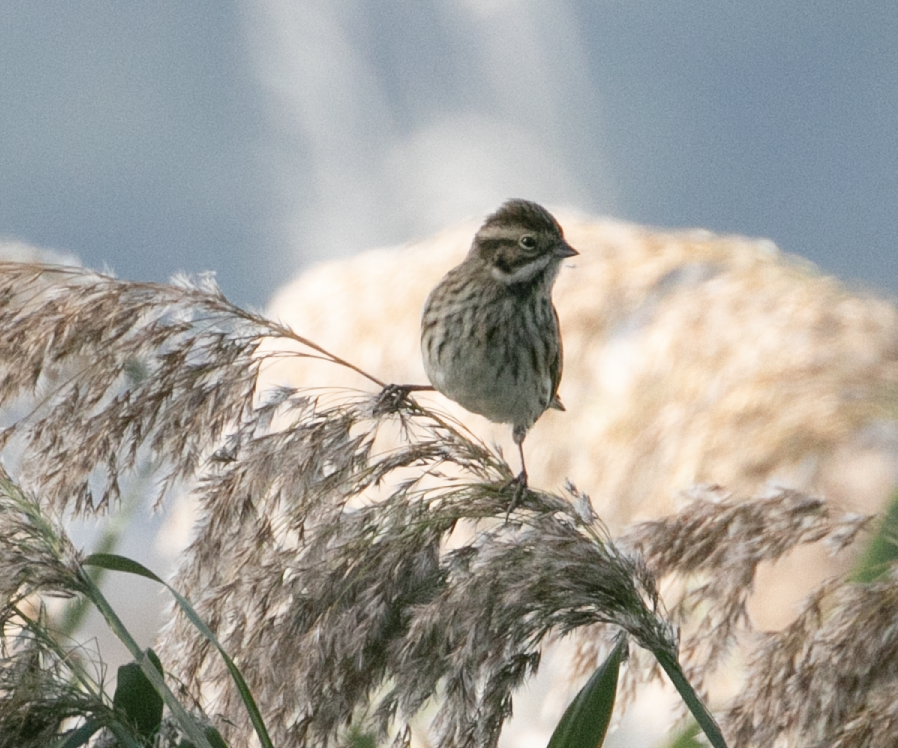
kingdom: Animalia
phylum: Chordata
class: Aves
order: Passeriformes
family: Emberizidae
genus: Emberiza
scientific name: Emberiza schoeniclus
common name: Reed bunting
